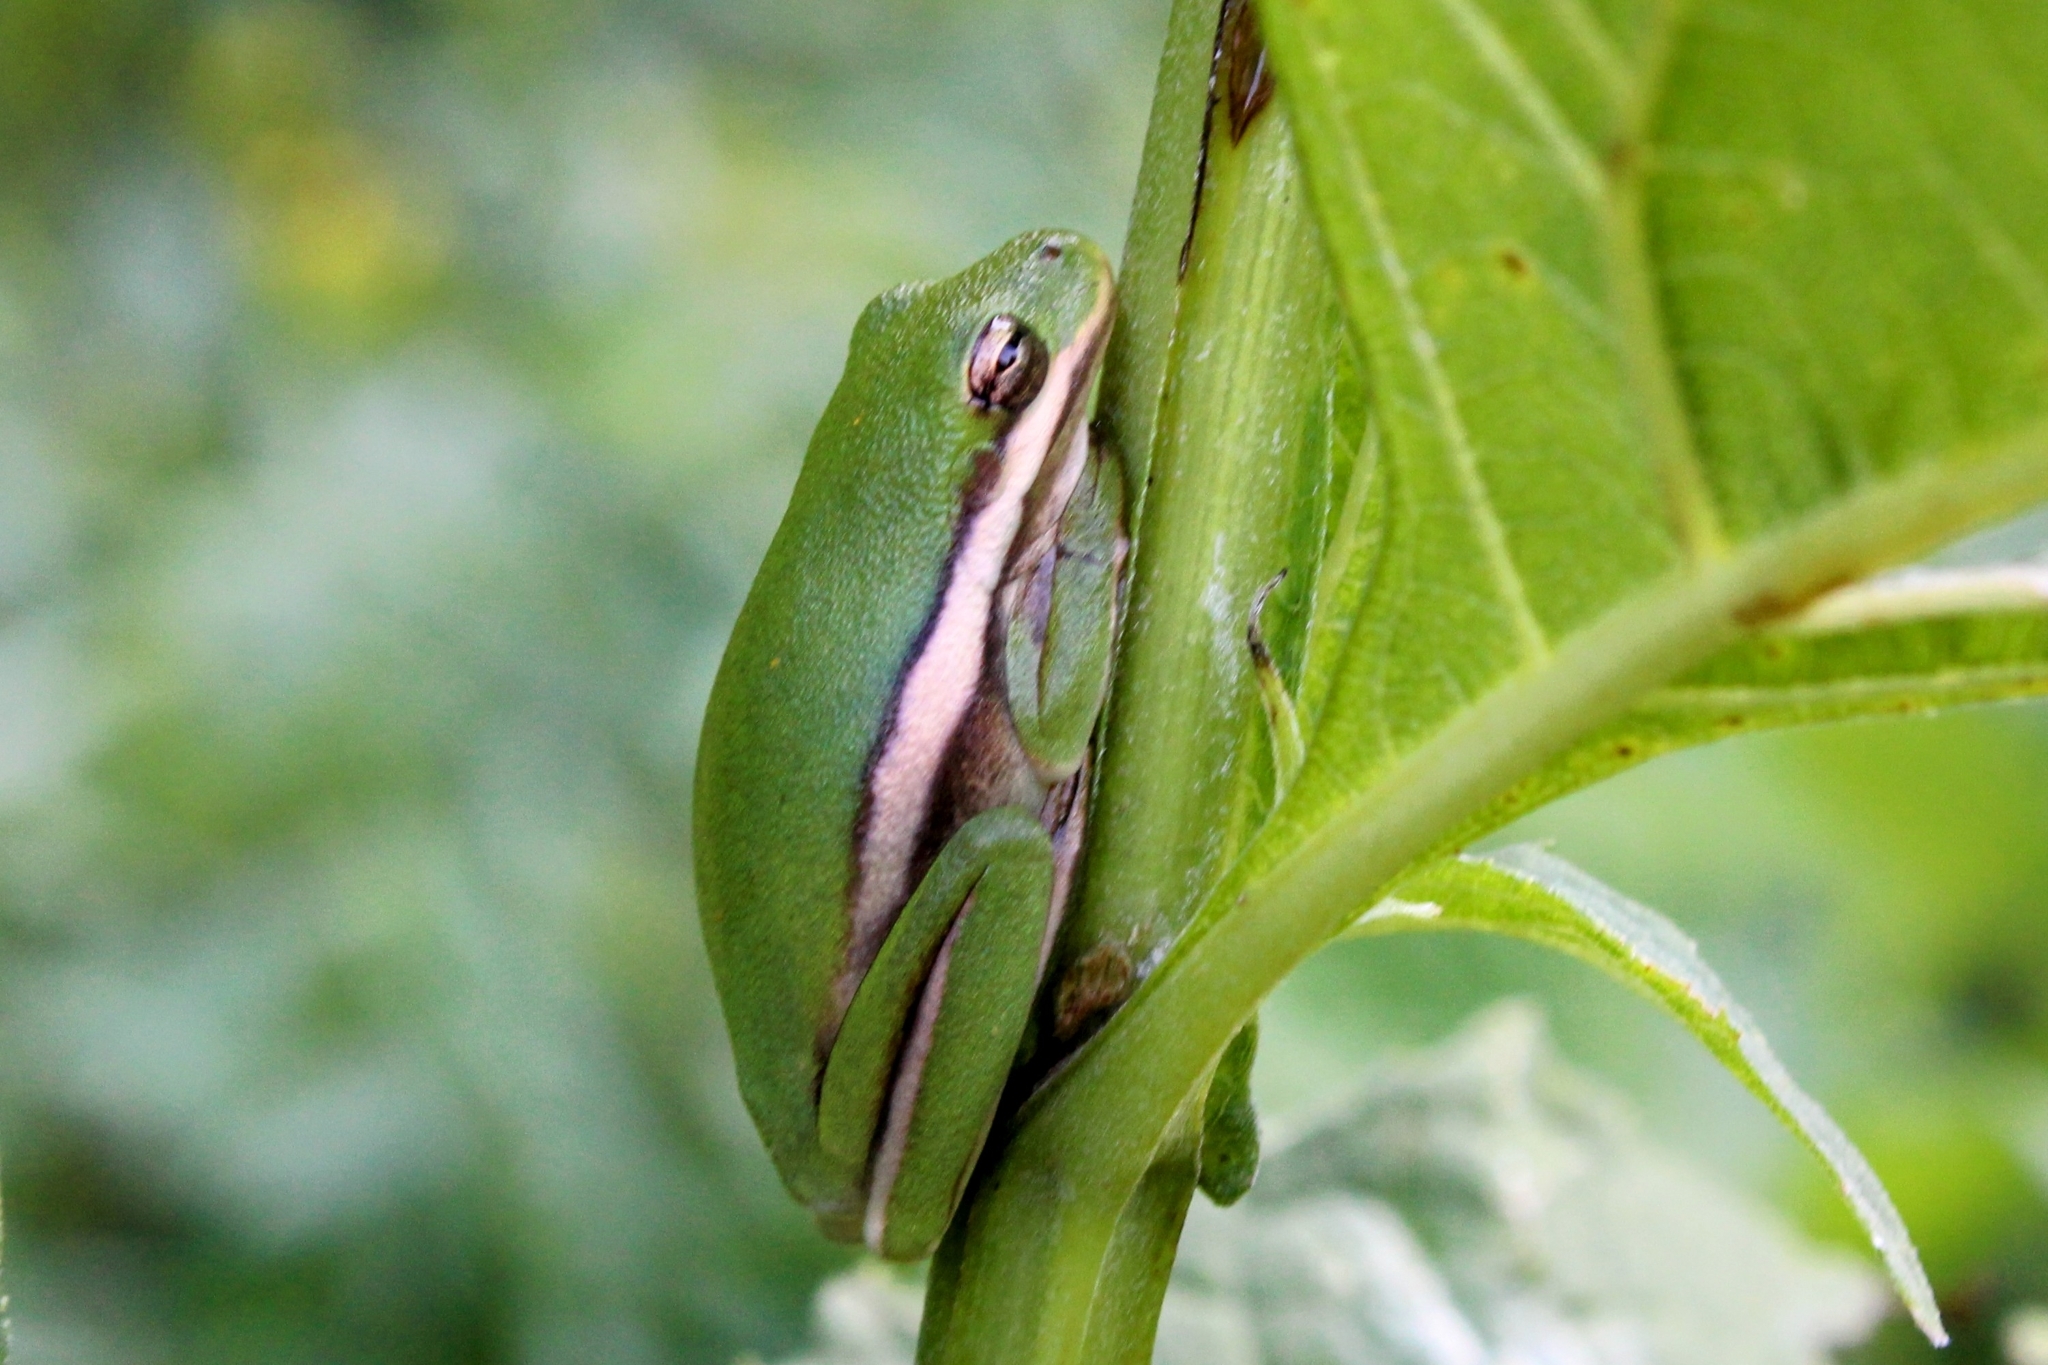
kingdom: Animalia
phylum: Chordata
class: Amphibia
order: Anura
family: Hylidae
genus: Dryophytes
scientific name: Dryophytes cinereus
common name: Green treefrog
